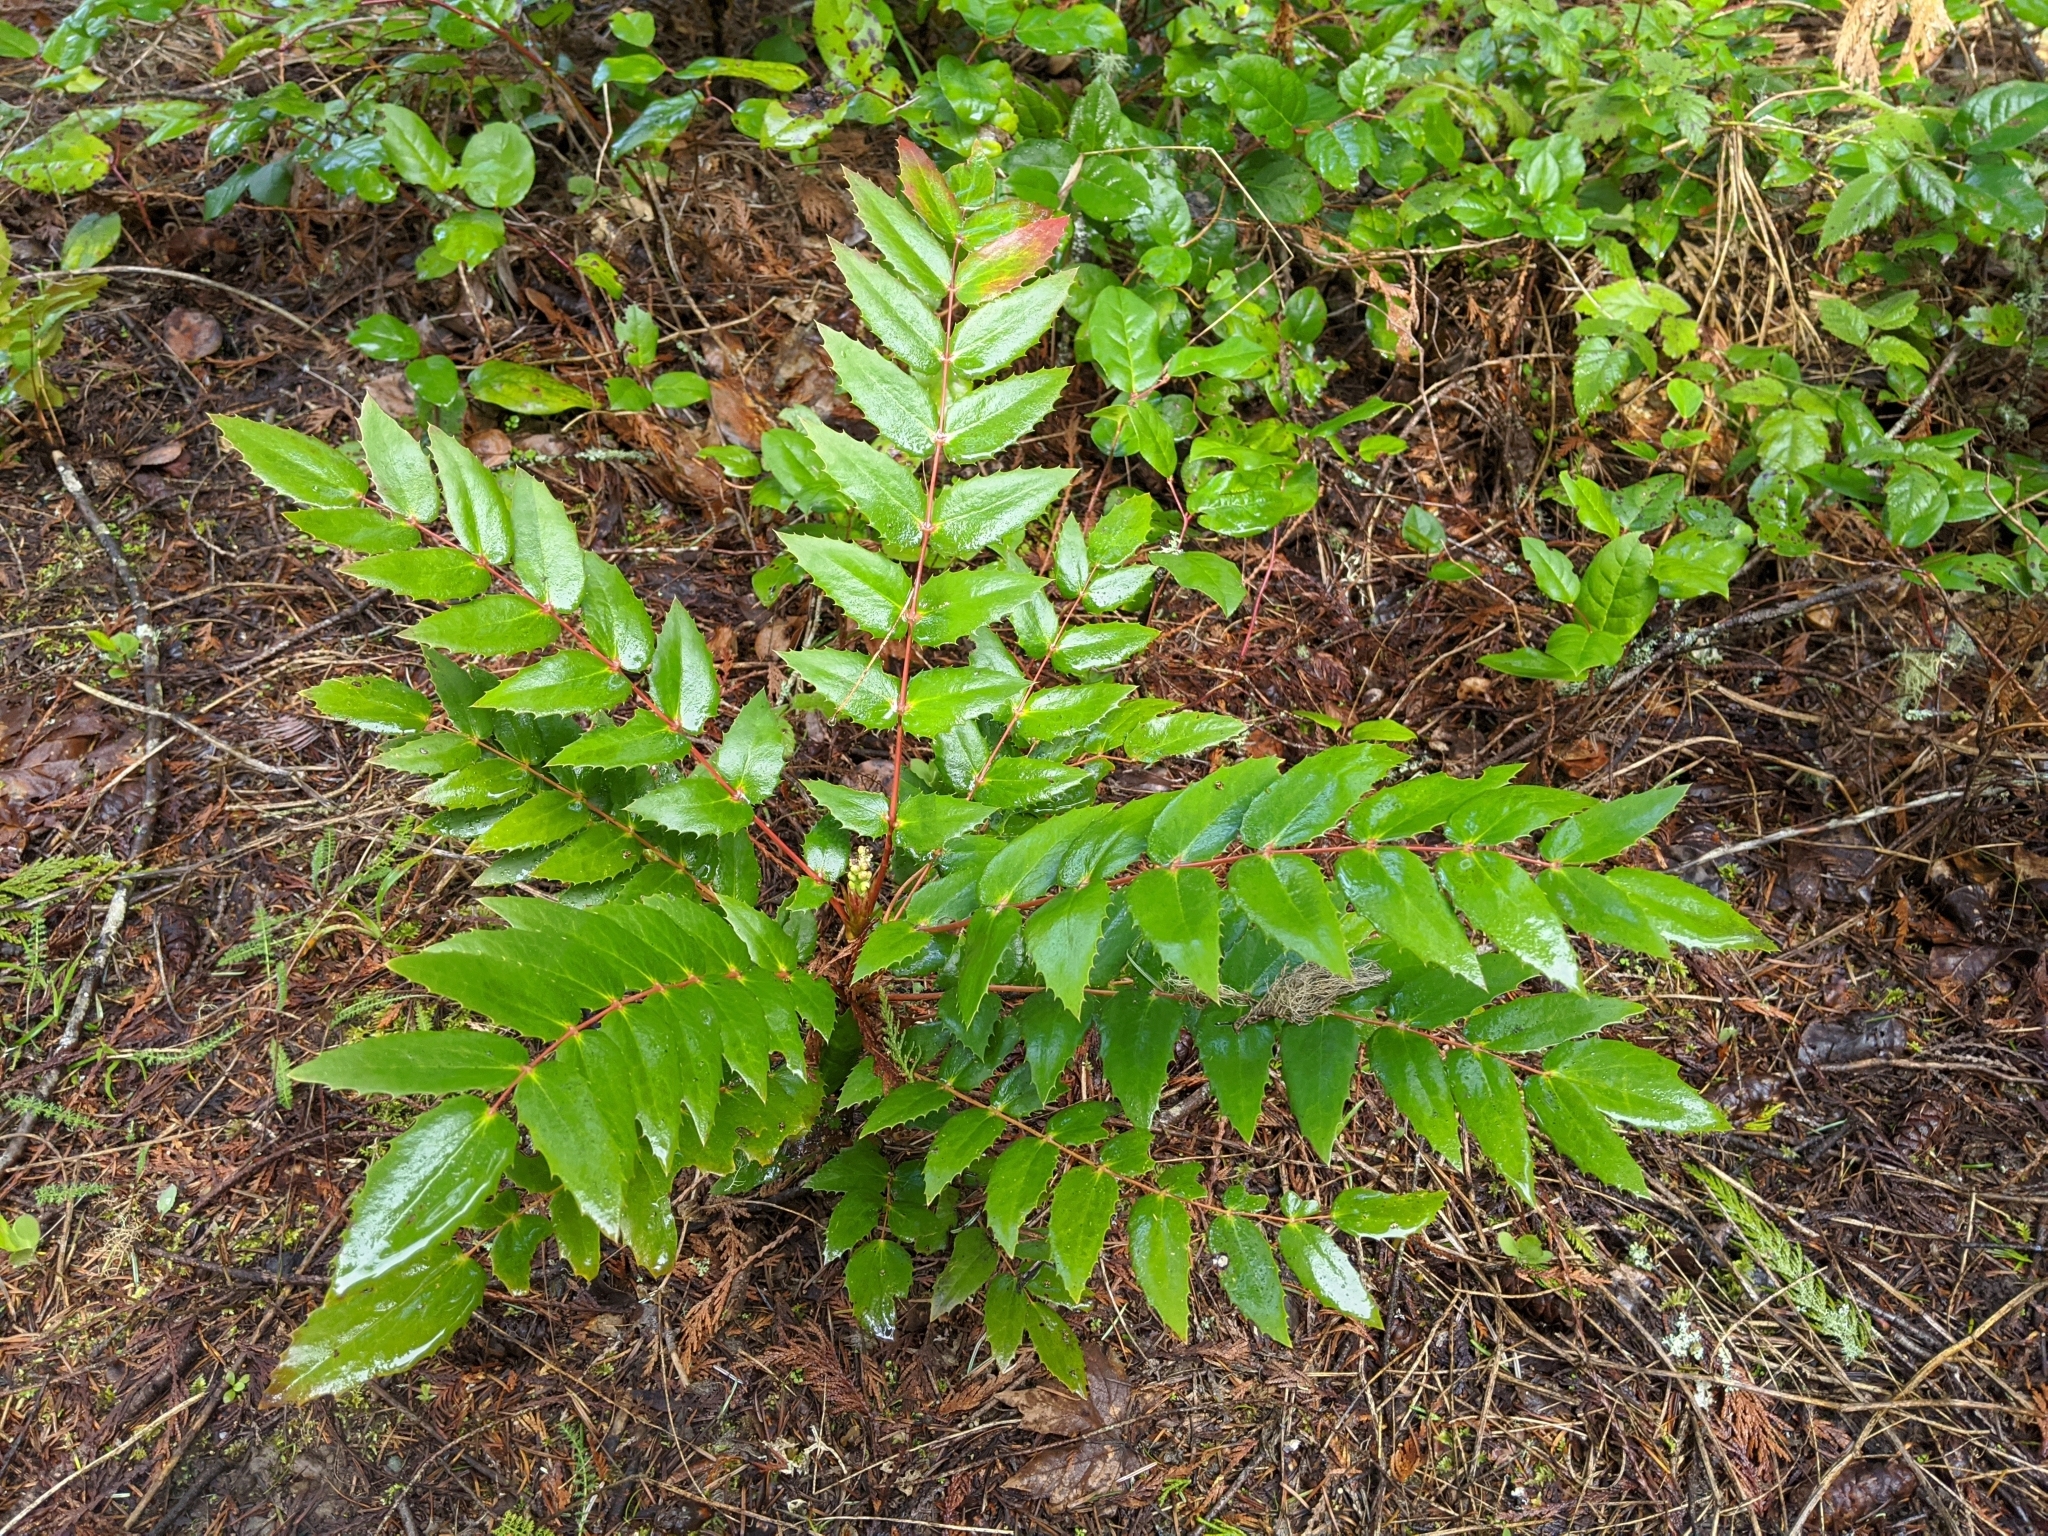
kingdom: Plantae
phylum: Tracheophyta
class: Magnoliopsida
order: Ranunculales
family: Berberidaceae
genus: Mahonia
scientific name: Mahonia nervosa
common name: Cascade oregon-grape
